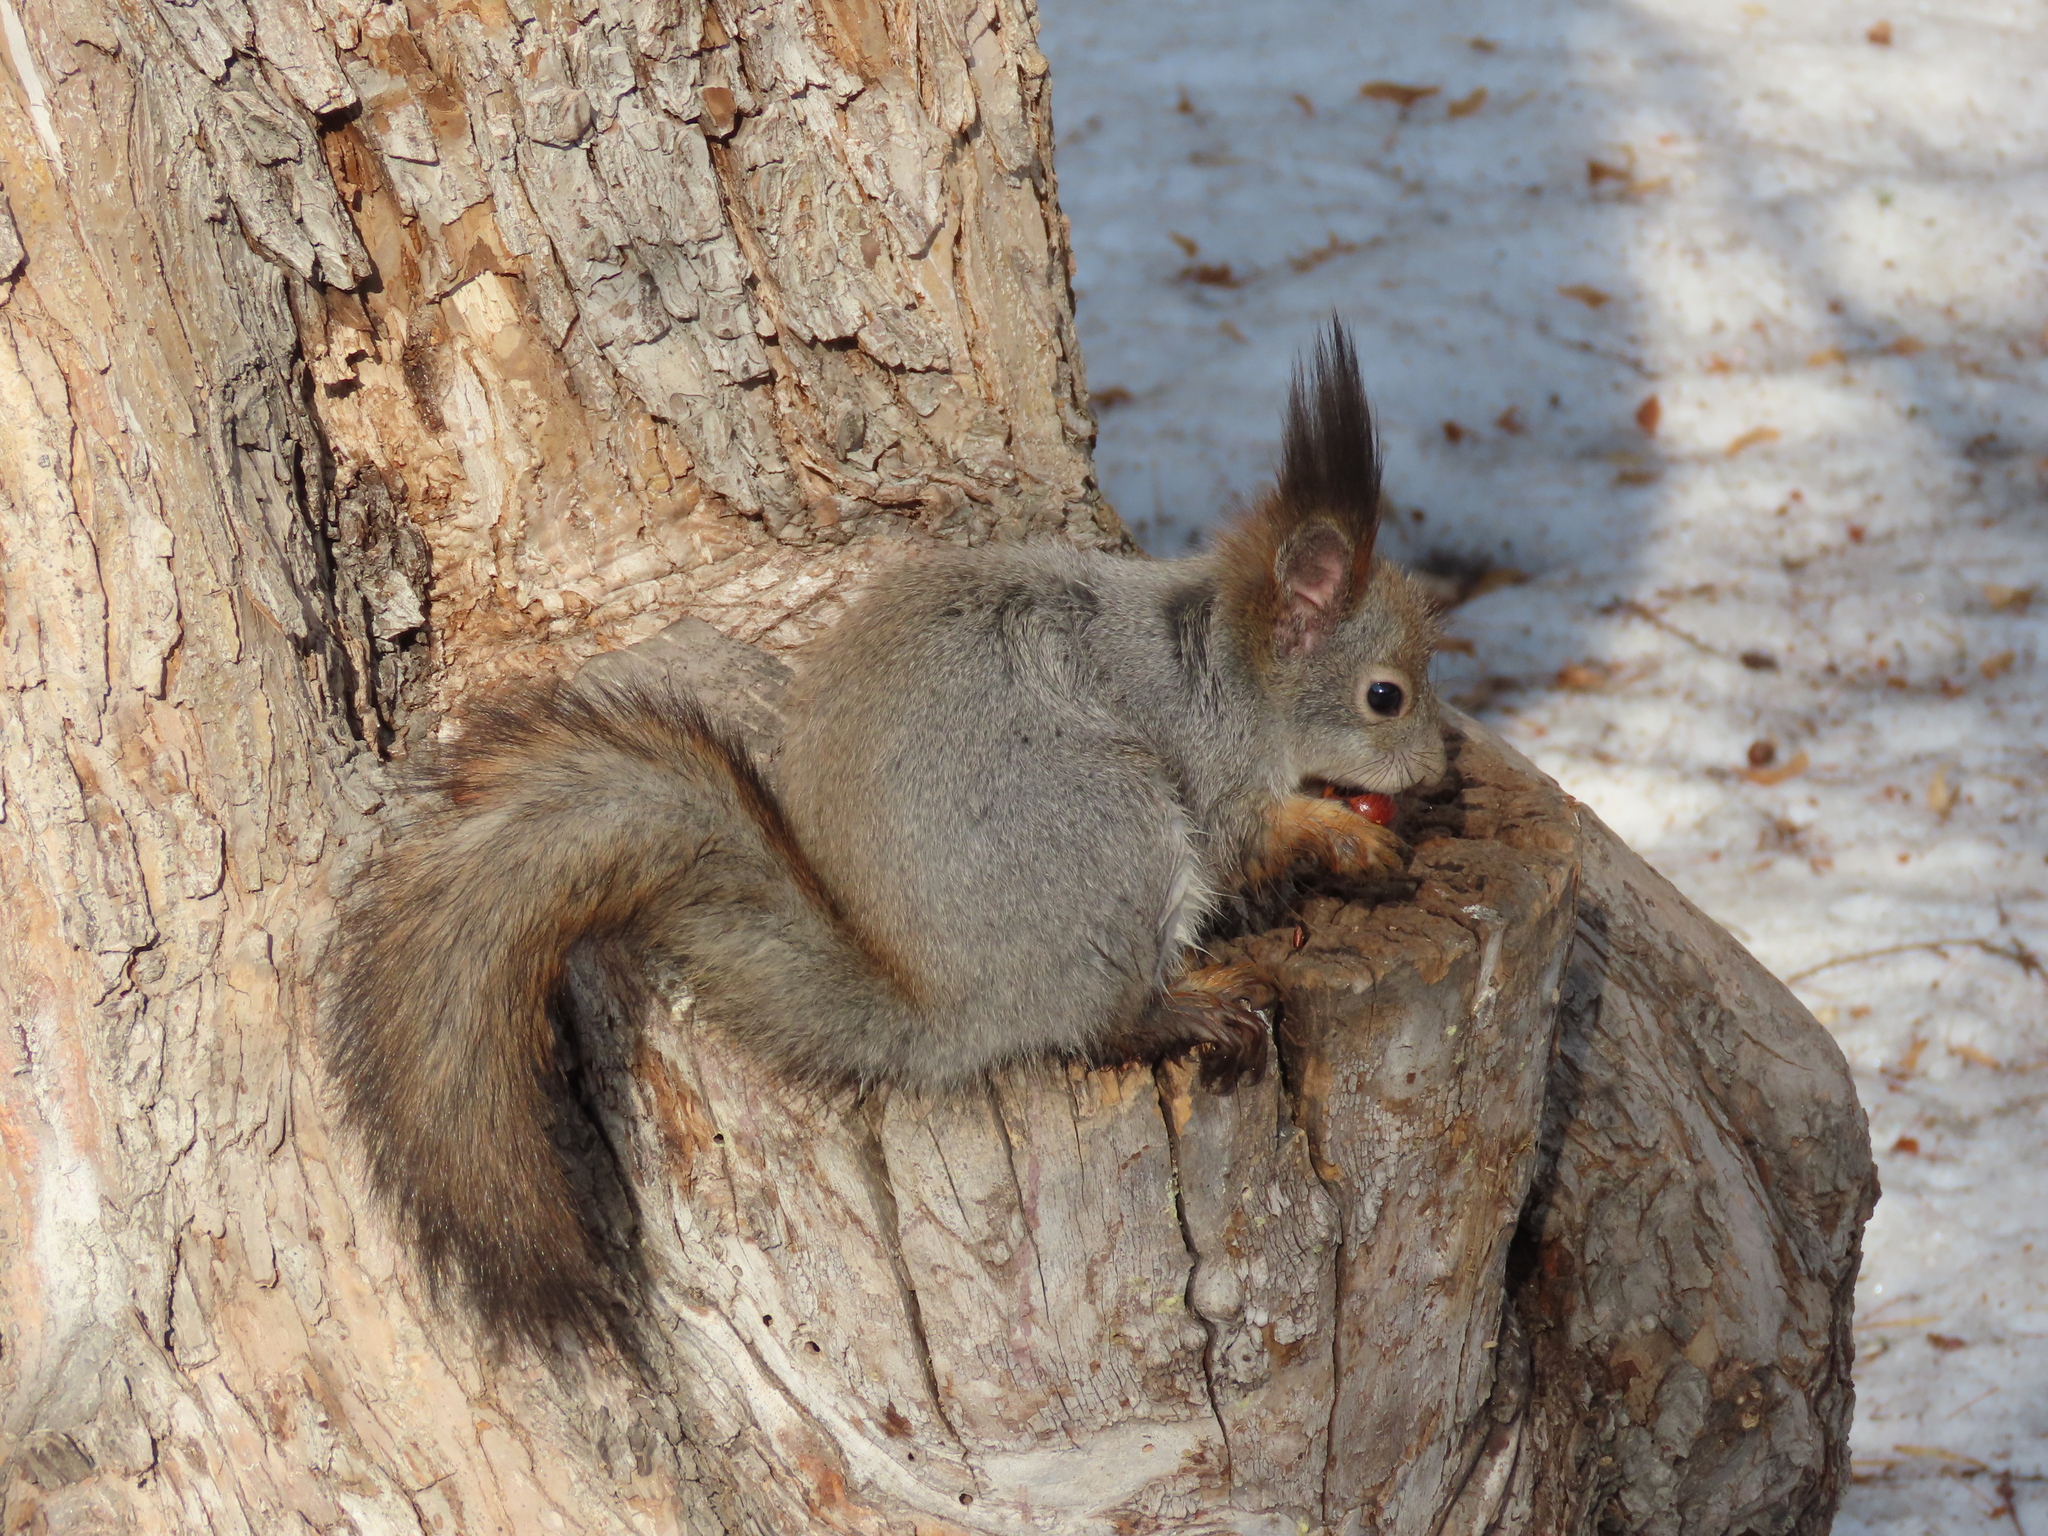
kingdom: Animalia
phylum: Chordata
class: Mammalia
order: Rodentia
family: Sciuridae
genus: Sciurus
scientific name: Sciurus vulgaris
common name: Eurasian red squirrel
